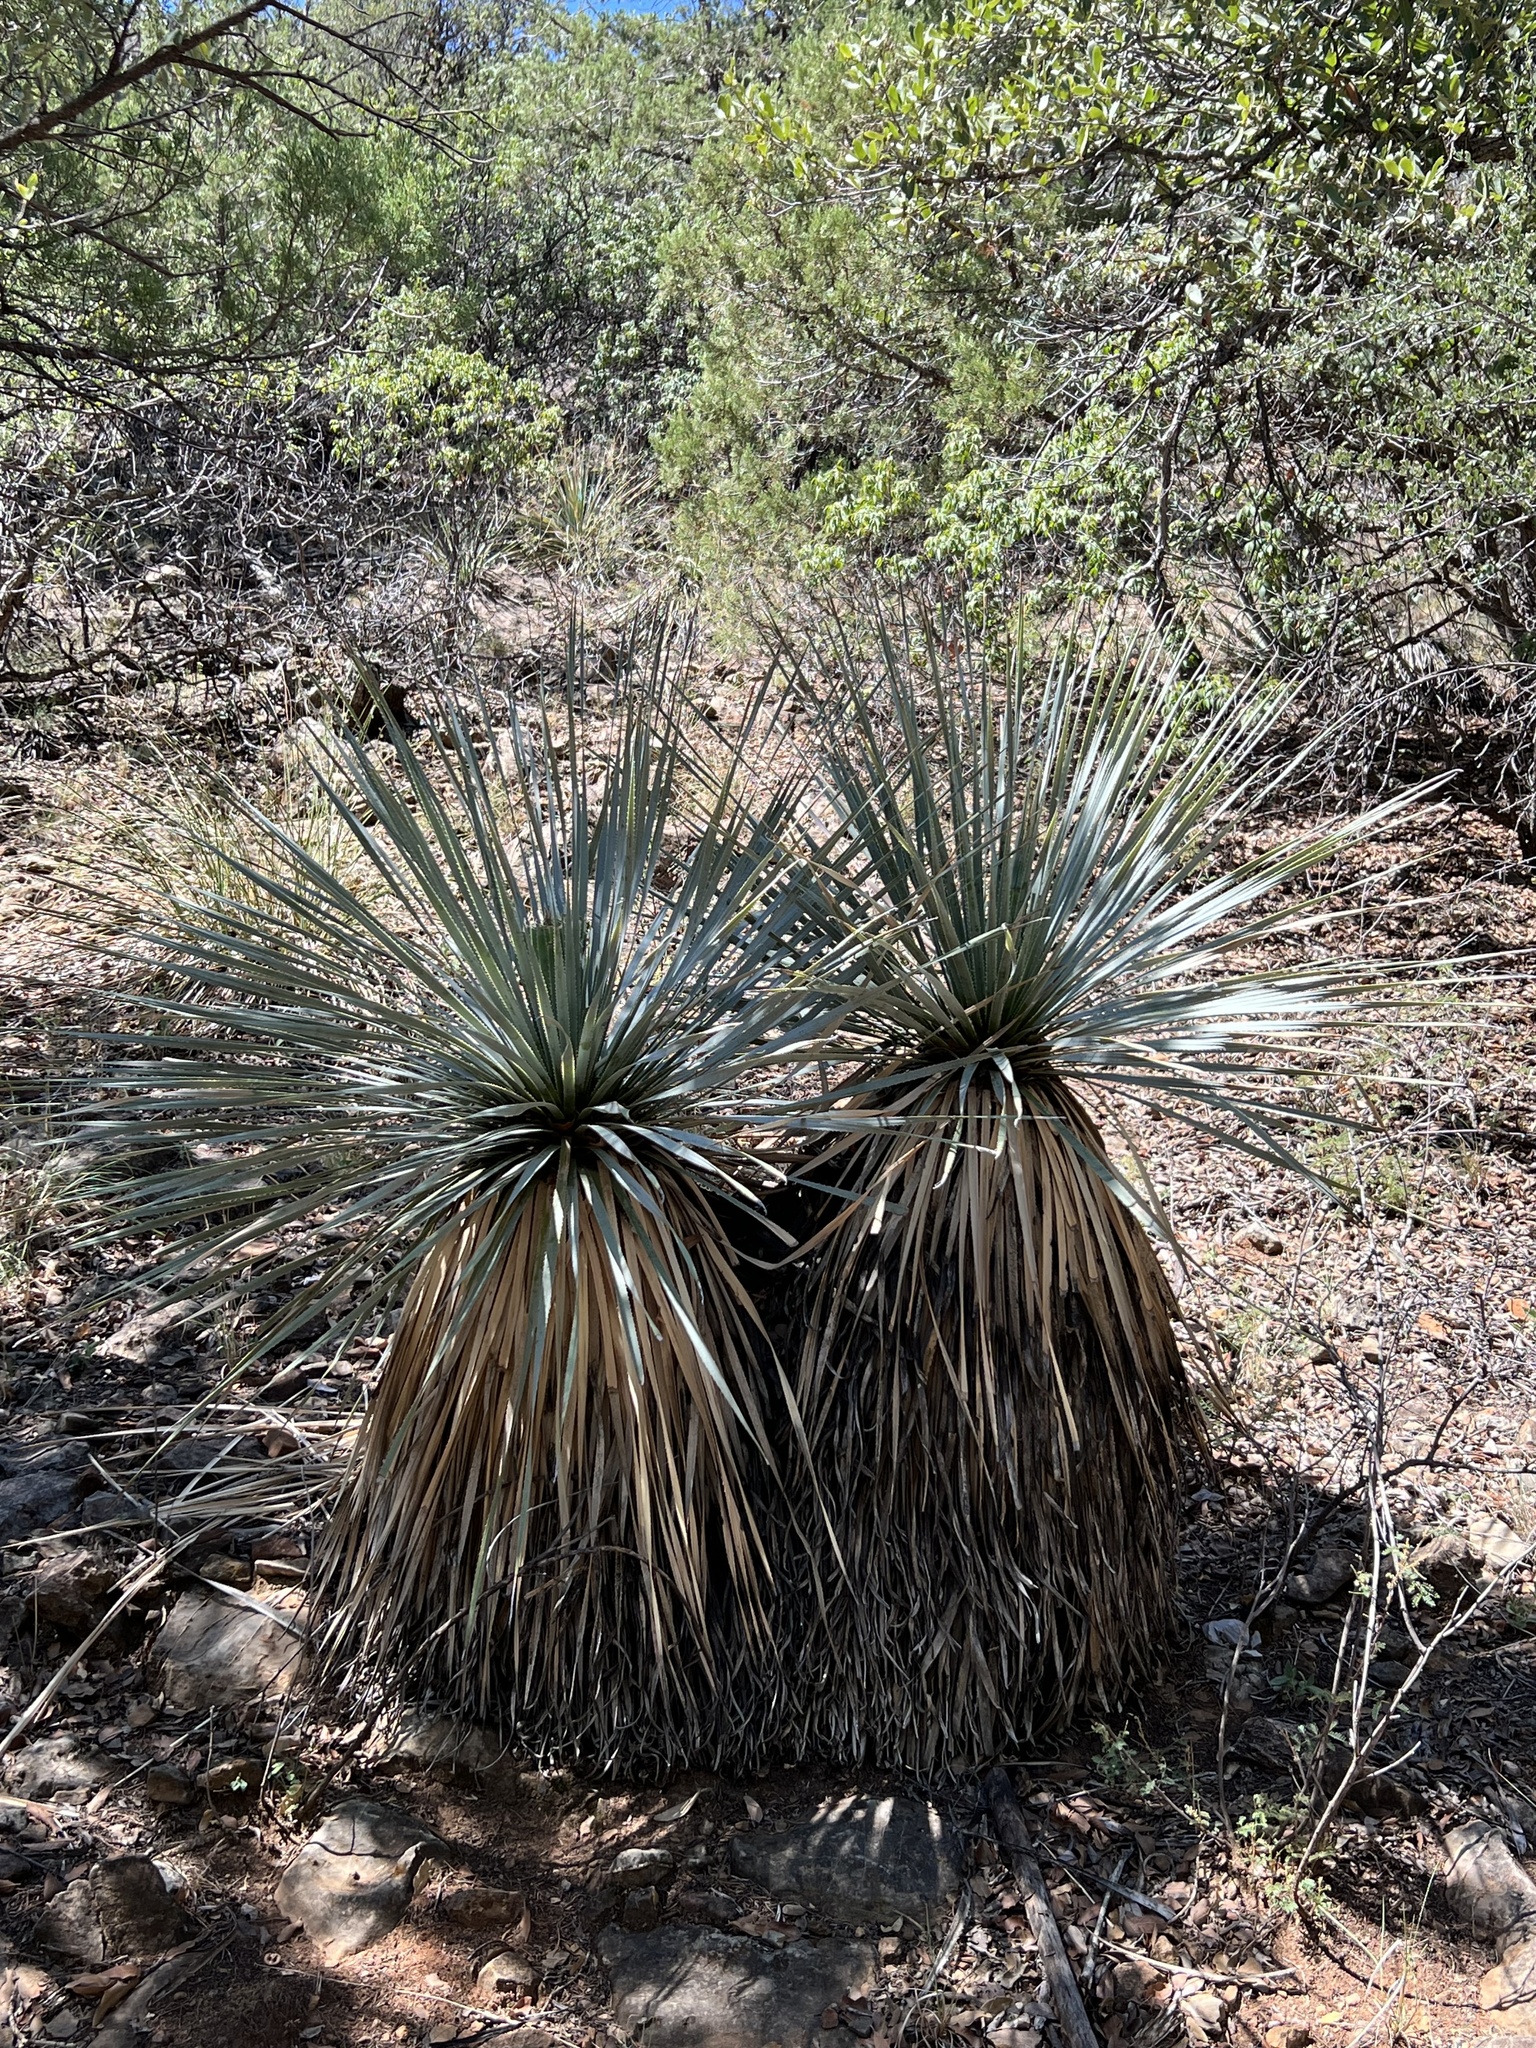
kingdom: Plantae
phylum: Tracheophyta
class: Liliopsida
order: Asparagales
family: Asparagaceae
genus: Dasylirion
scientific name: Dasylirion wheeleri
